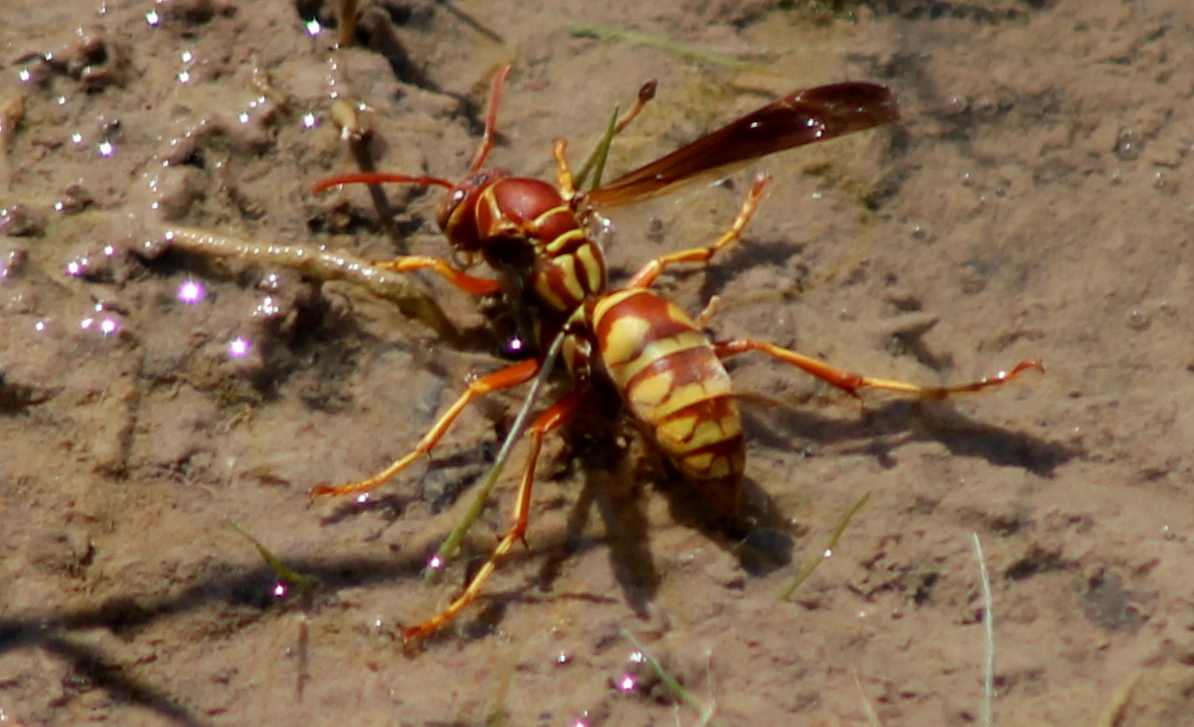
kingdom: Animalia
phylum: Arthropoda
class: Insecta
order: Hymenoptera
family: Eumenidae
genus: Polistes
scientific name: Polistes apachus
